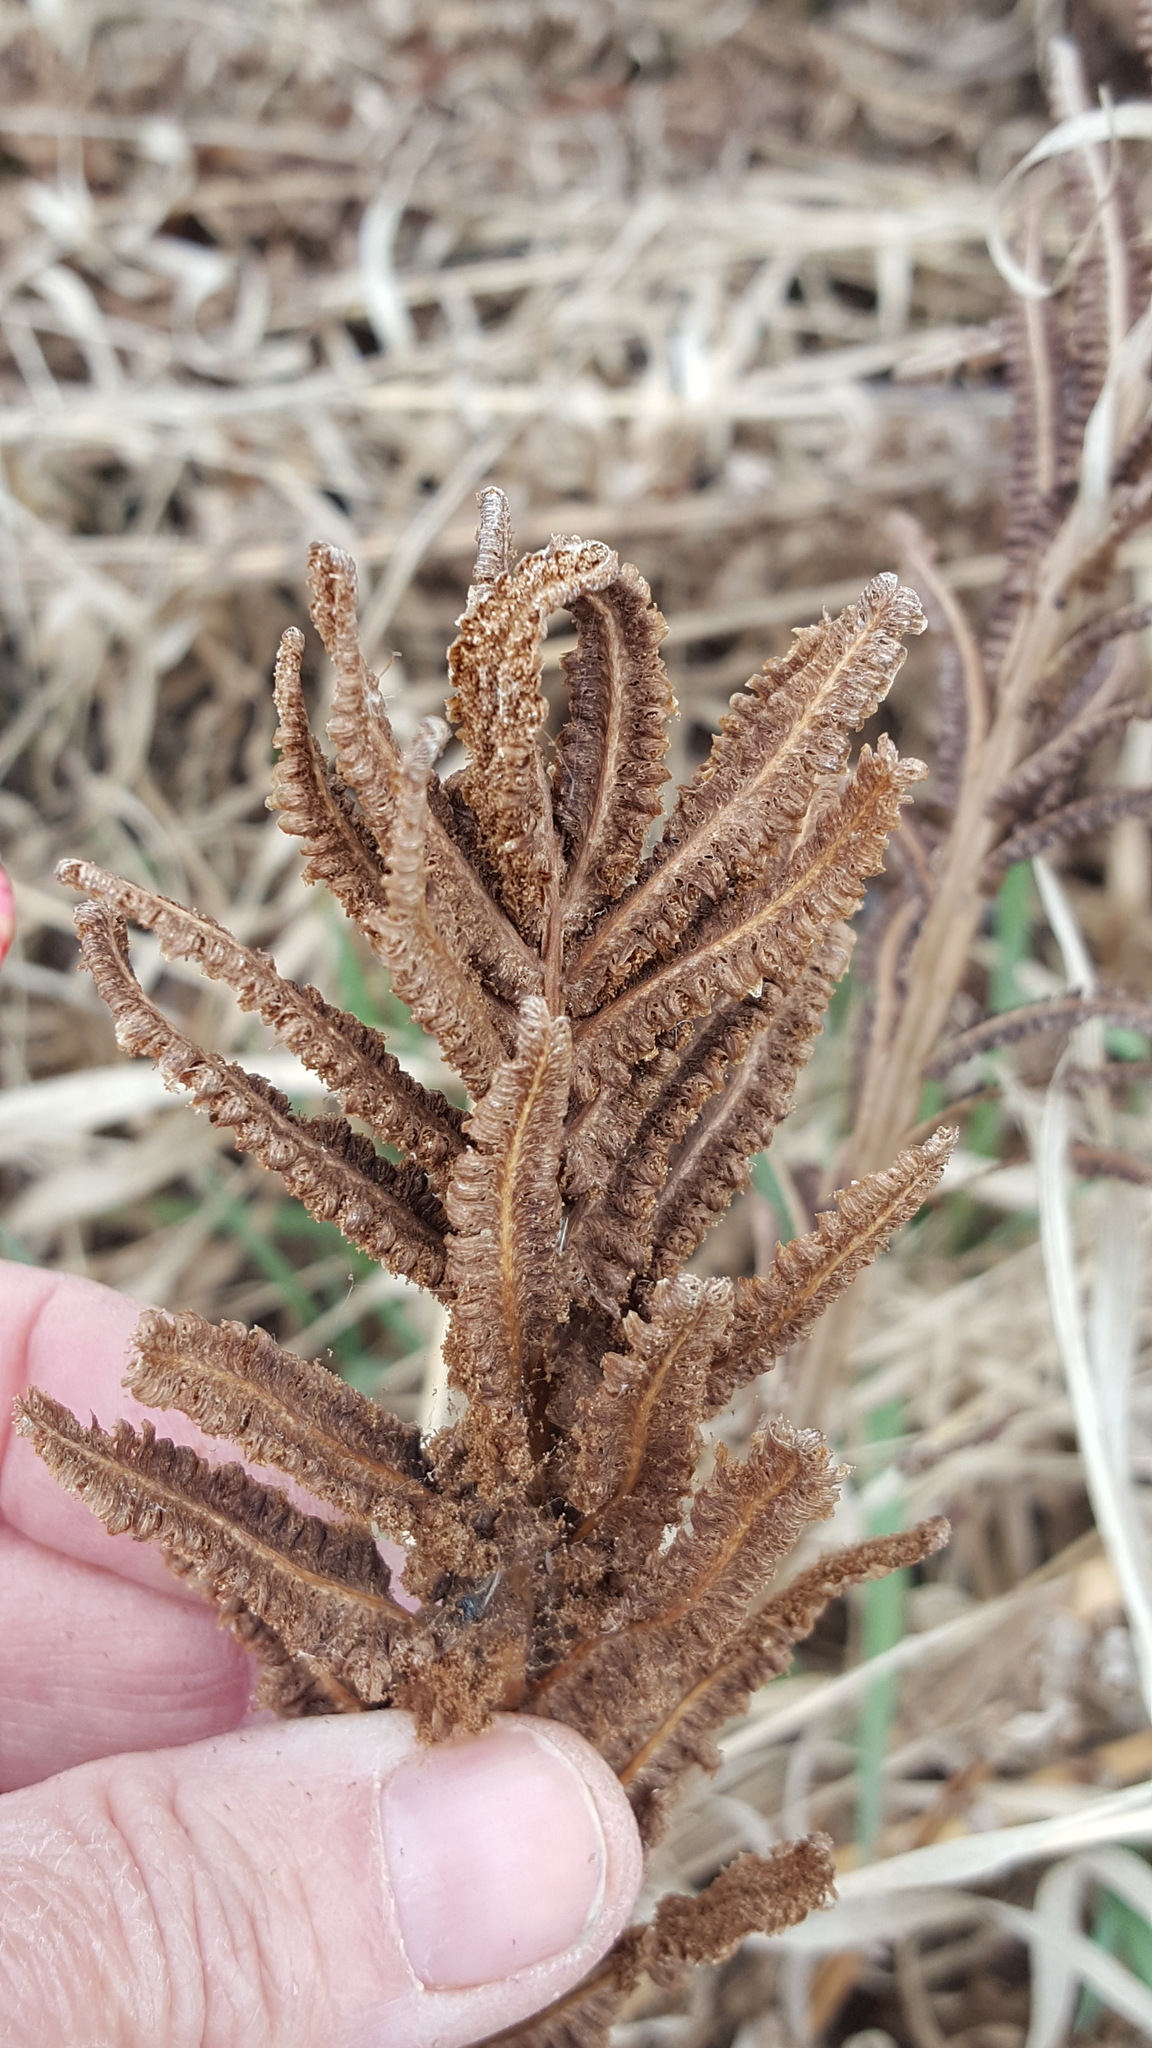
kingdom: Plantae
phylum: Tracheophyta
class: Polypodiopsida
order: Polypodiales
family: Onocleaceae
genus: Matteuccia
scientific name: Matteuccia struthiopteris
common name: Ostrich fern
